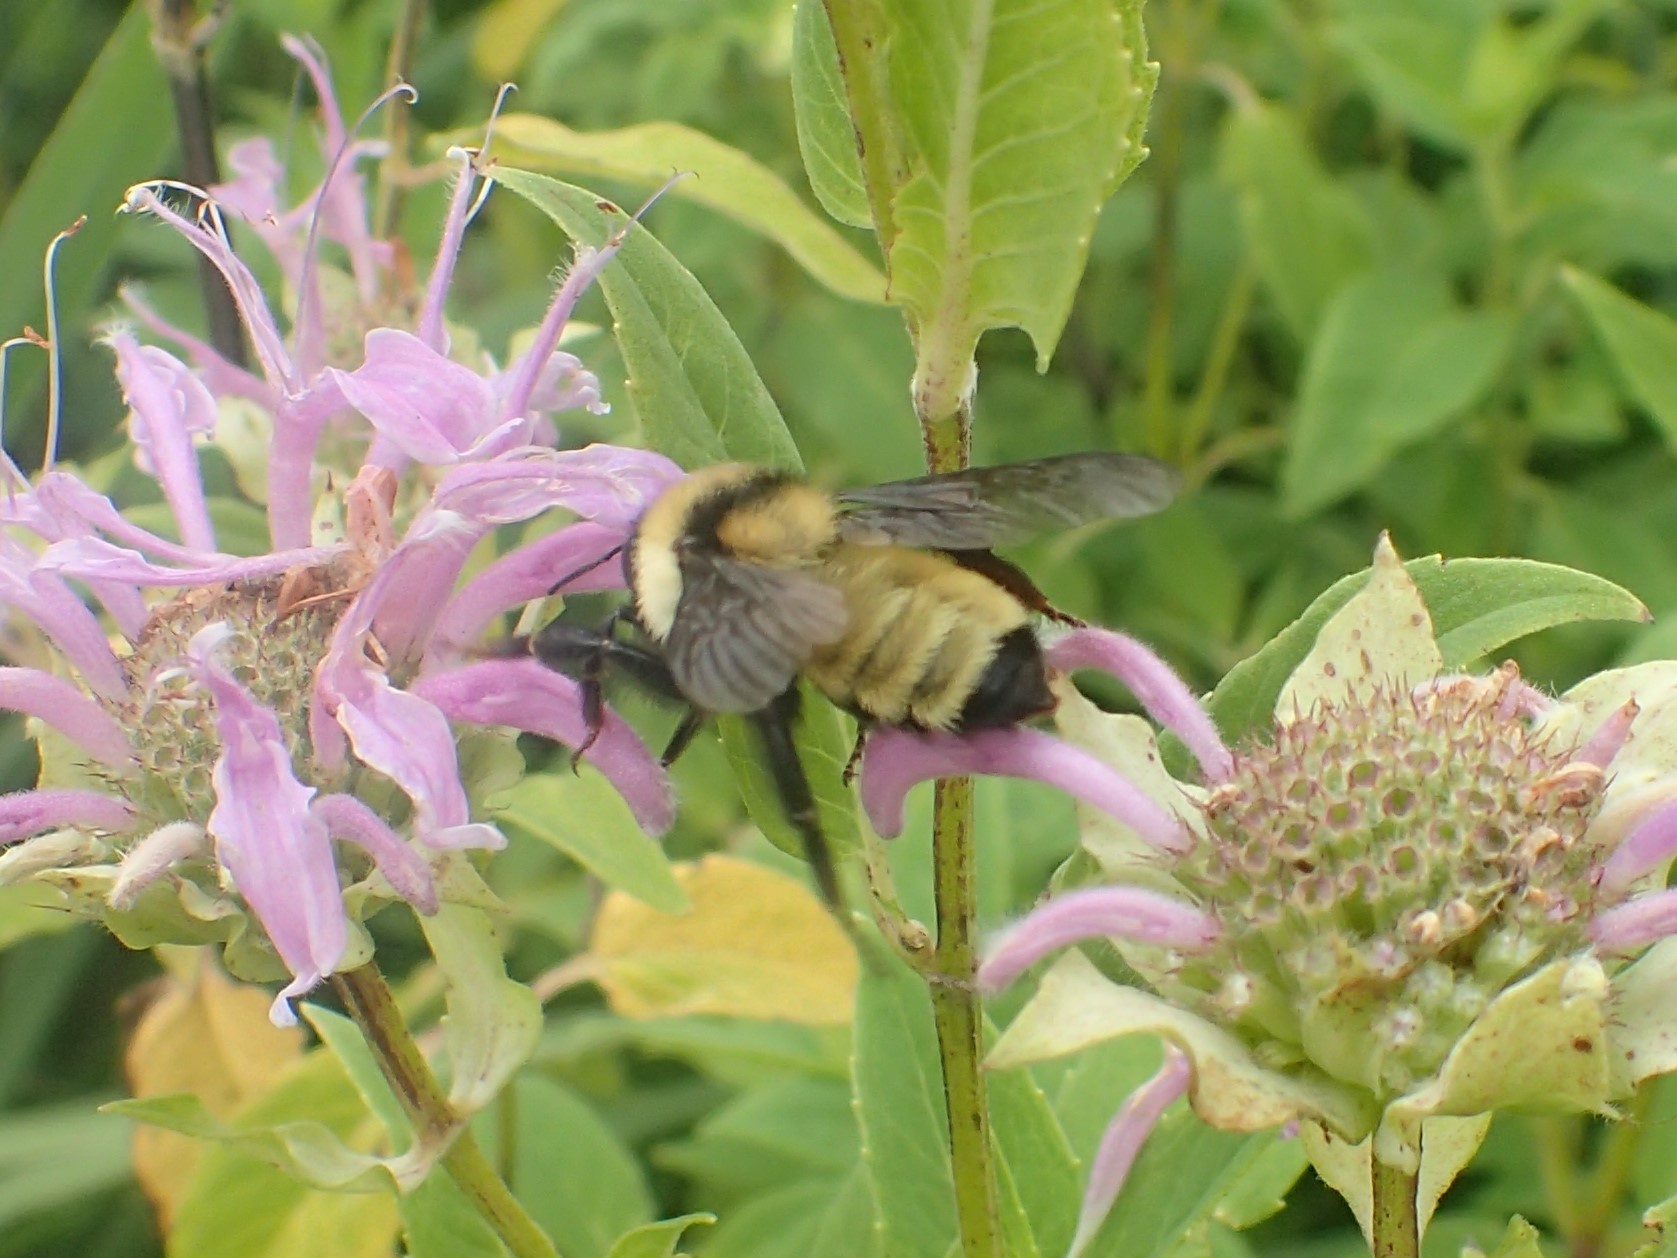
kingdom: Animalia
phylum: Arthropoda
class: Insecta
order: Hymenoptera
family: Apidae
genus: Bombus
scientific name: Bombus fervidus
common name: Yellow bumble bee
